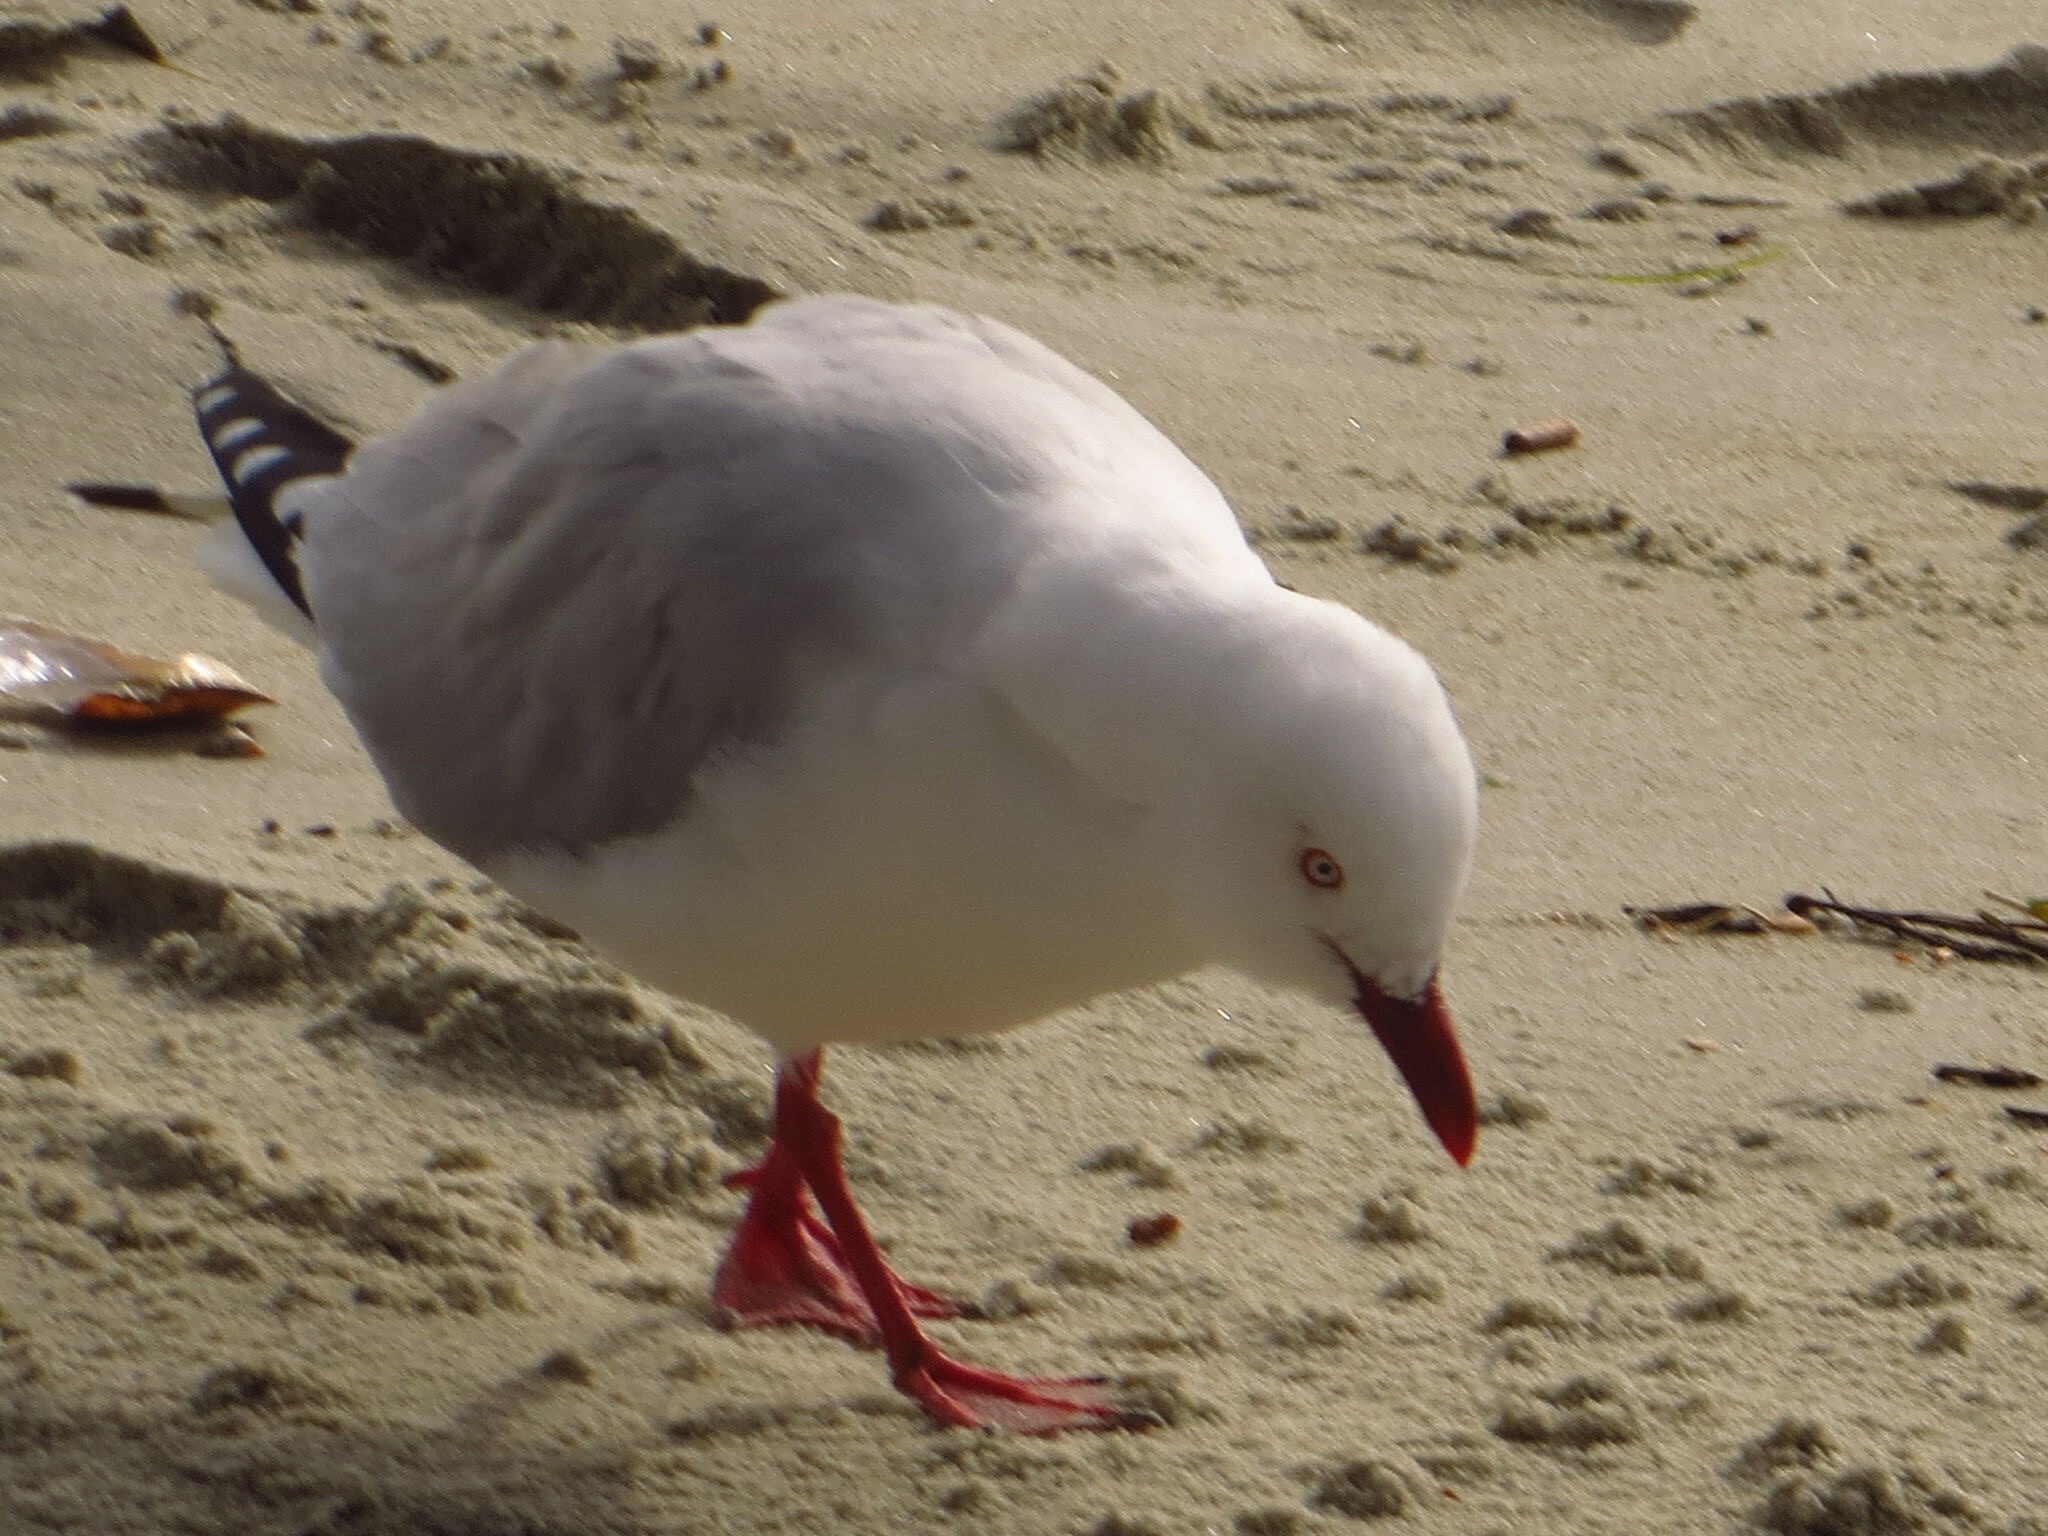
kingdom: Animalia
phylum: Chordata
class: Aves
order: Charadriiformes
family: Laridae
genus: Chroicocephalus
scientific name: Chroicocephalus novaehollandiae
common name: Silver gull
